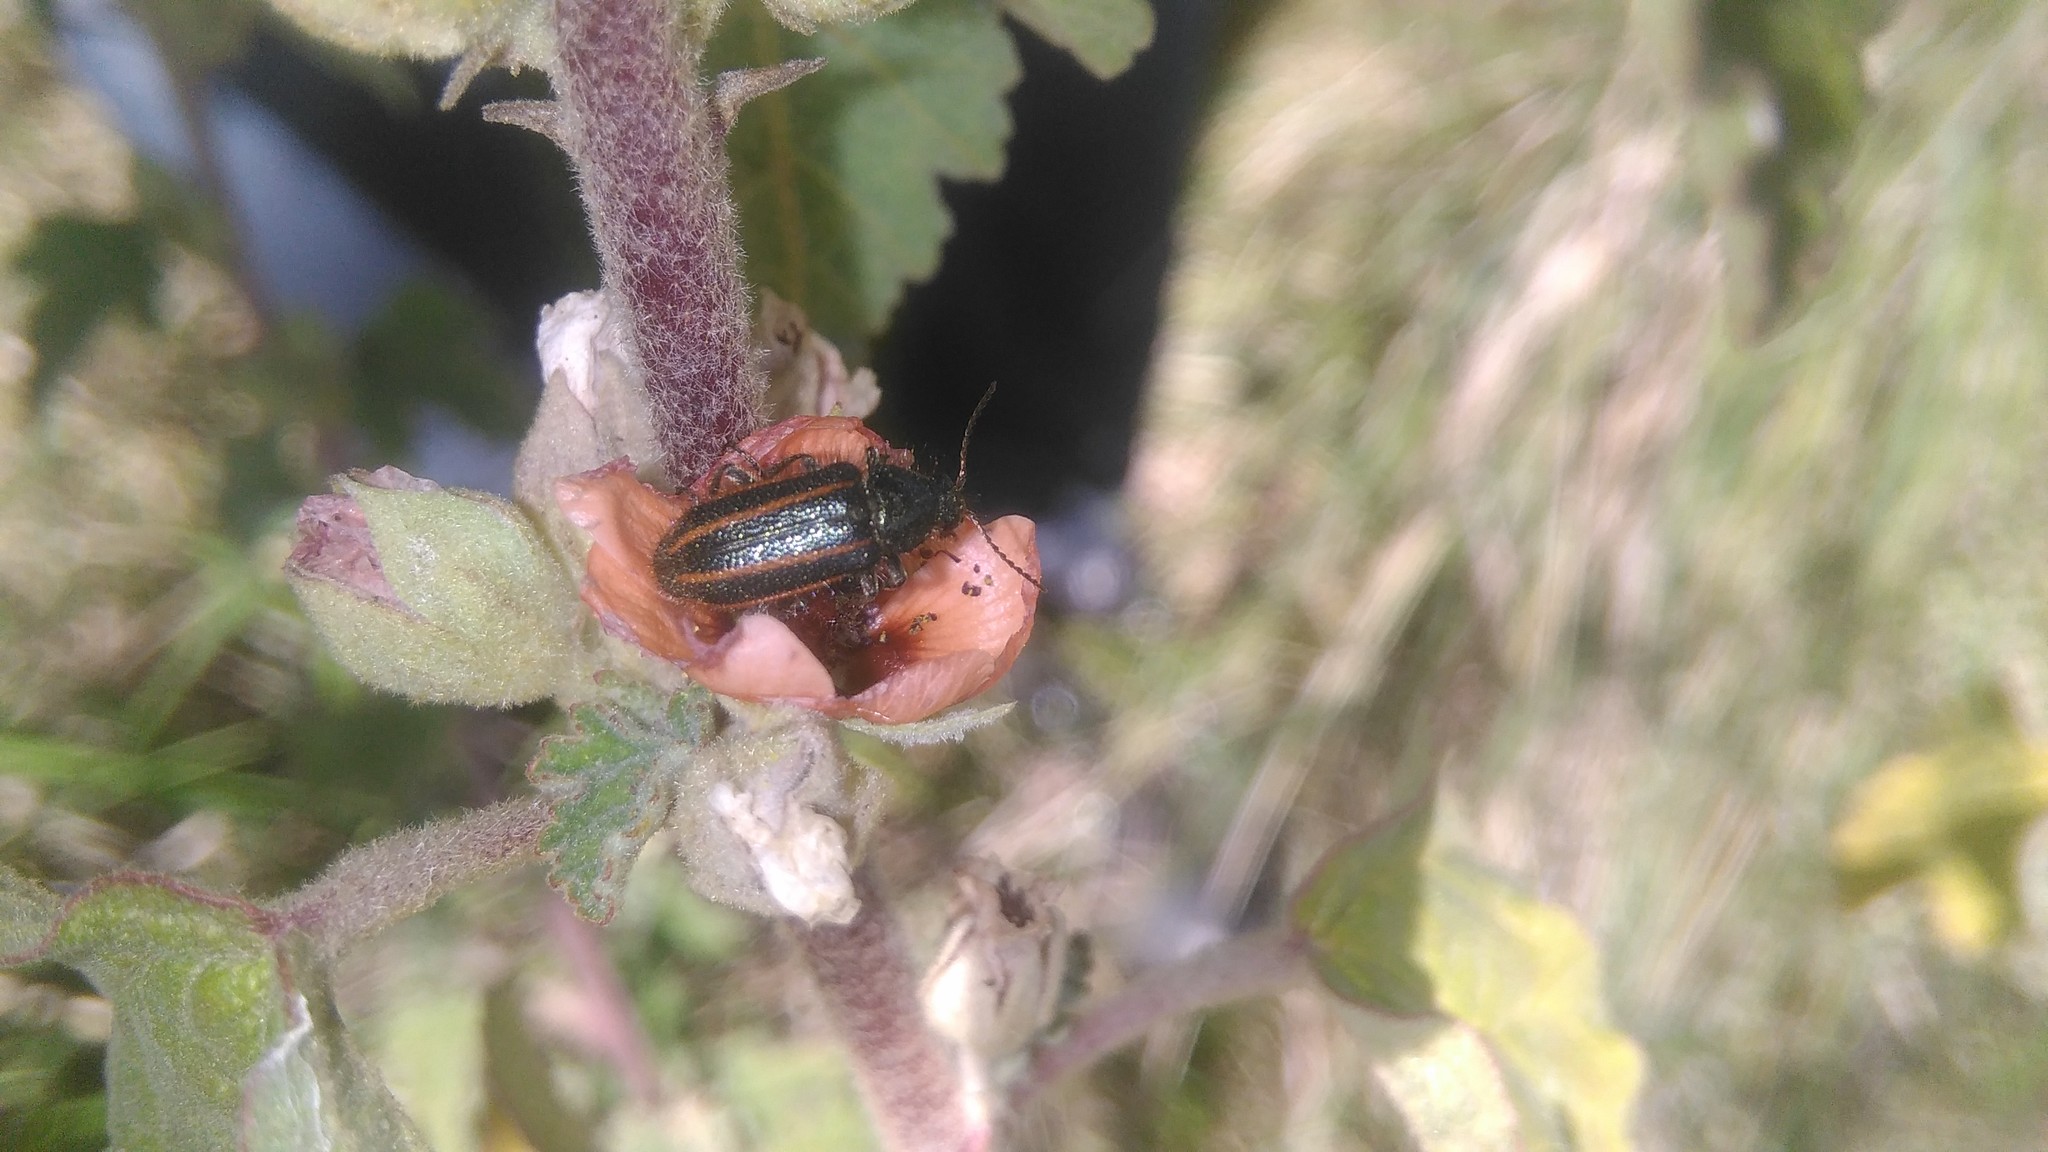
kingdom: Animalia
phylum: Arthropoda
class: Insecta
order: Coleoptera
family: Melyridae
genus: Astylus
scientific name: Astylus
